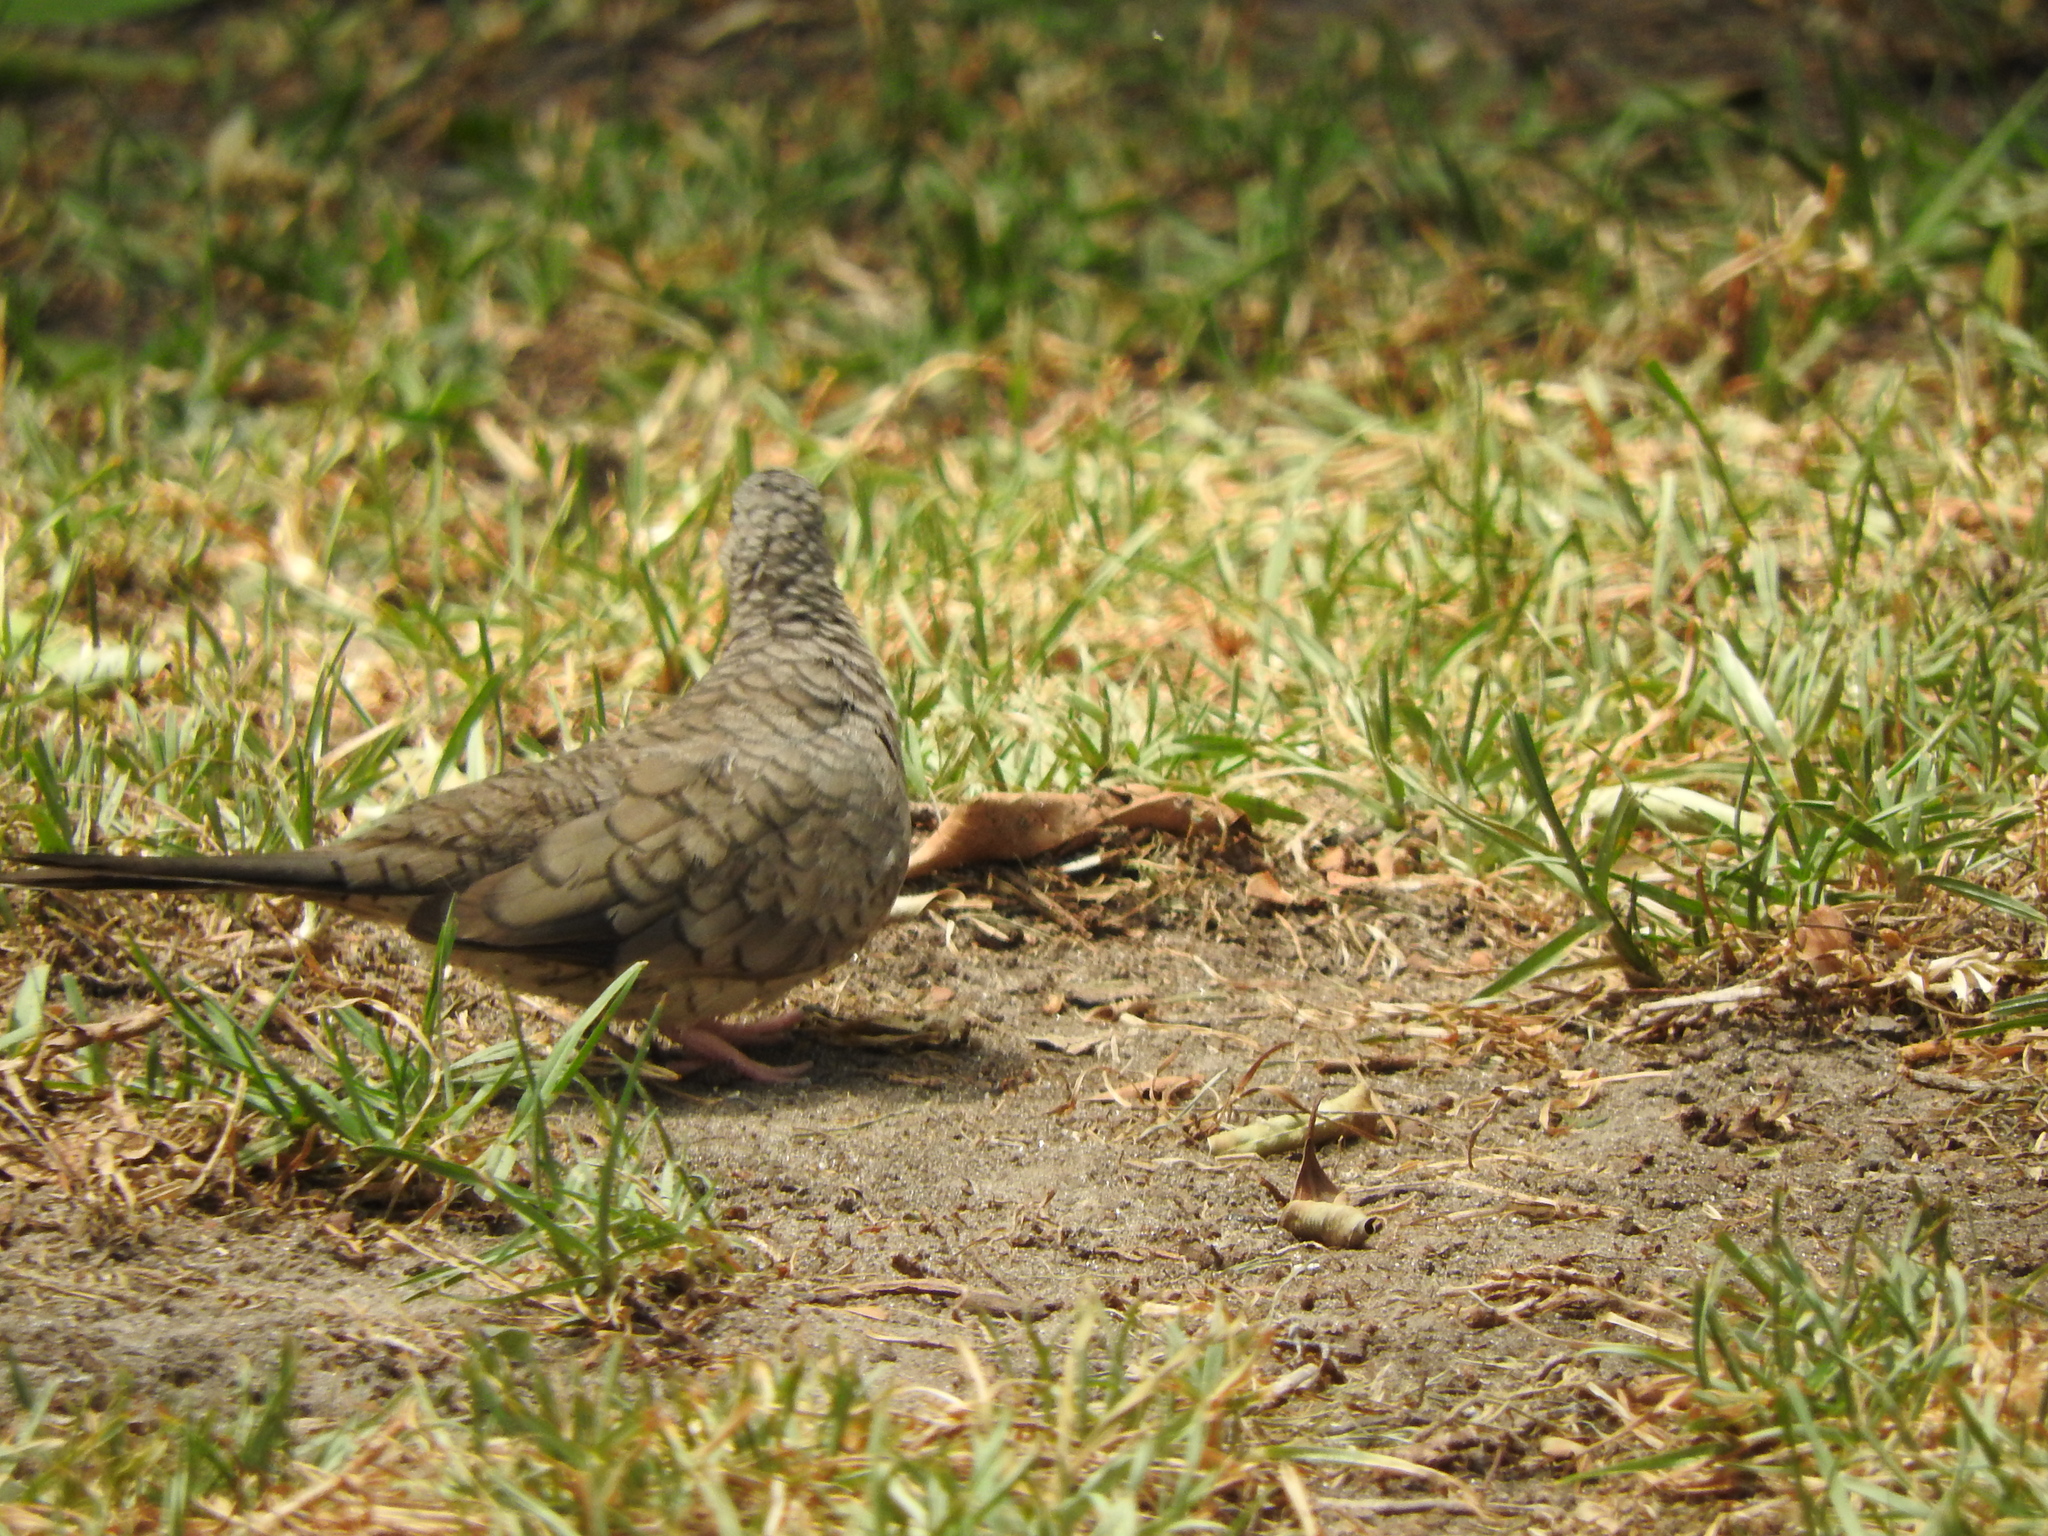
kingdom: Animalia
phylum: Chordata
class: Aves
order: Columbiformes
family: Columbidae
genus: Columbina
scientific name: Columbina inca
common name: Inca dove
